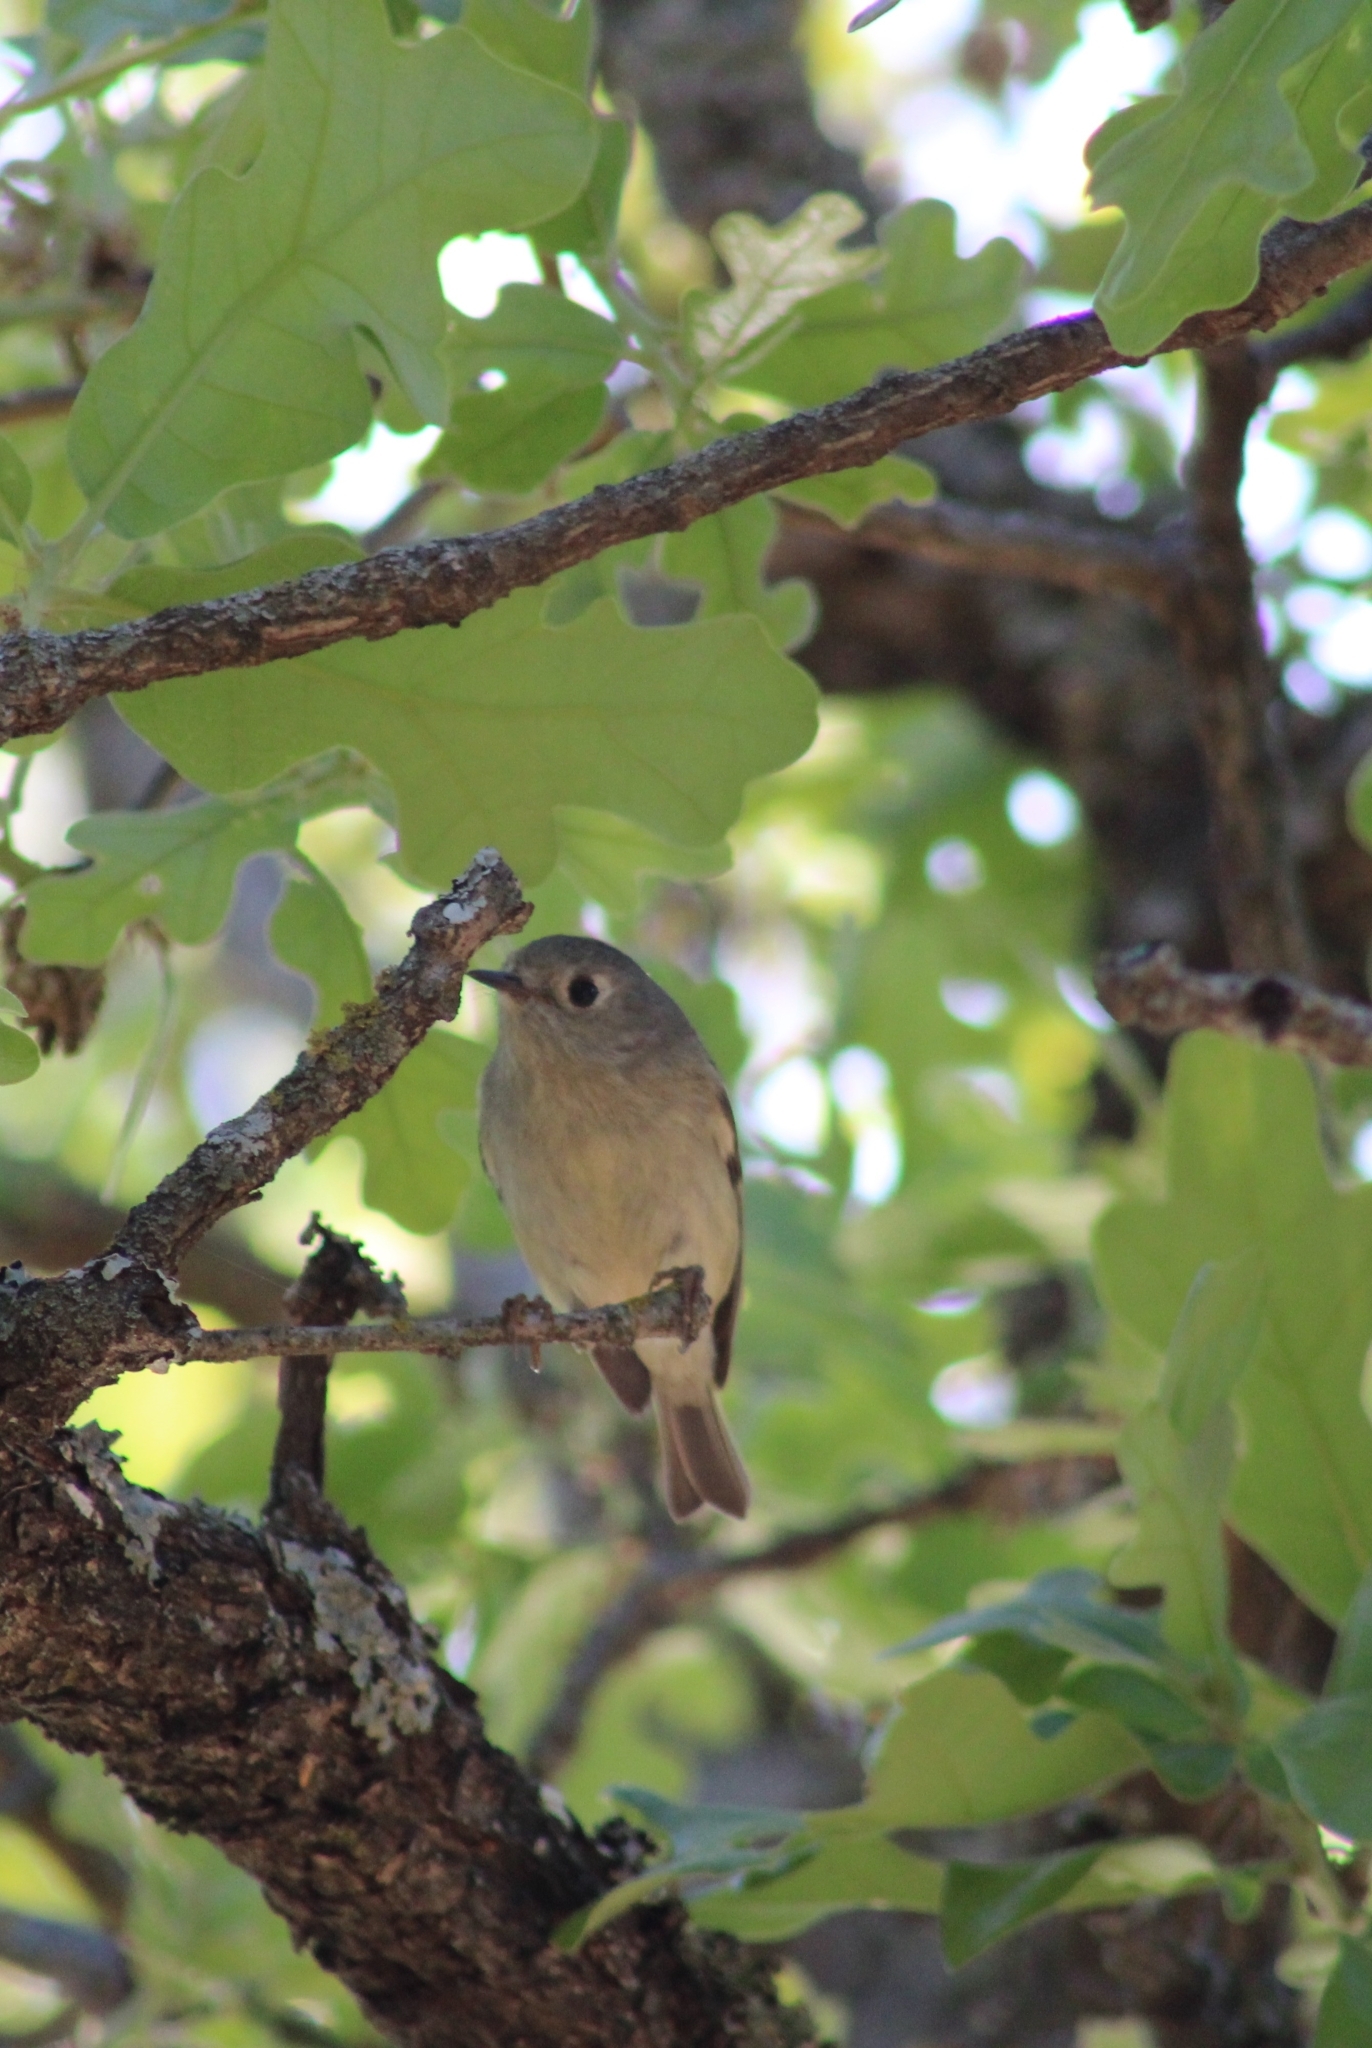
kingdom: Animalia
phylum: Chordata
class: Aves
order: Passeriformes
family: Regulidae
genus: Regulus
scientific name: Regulus calendula
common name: Ruby-crowned kinglet
